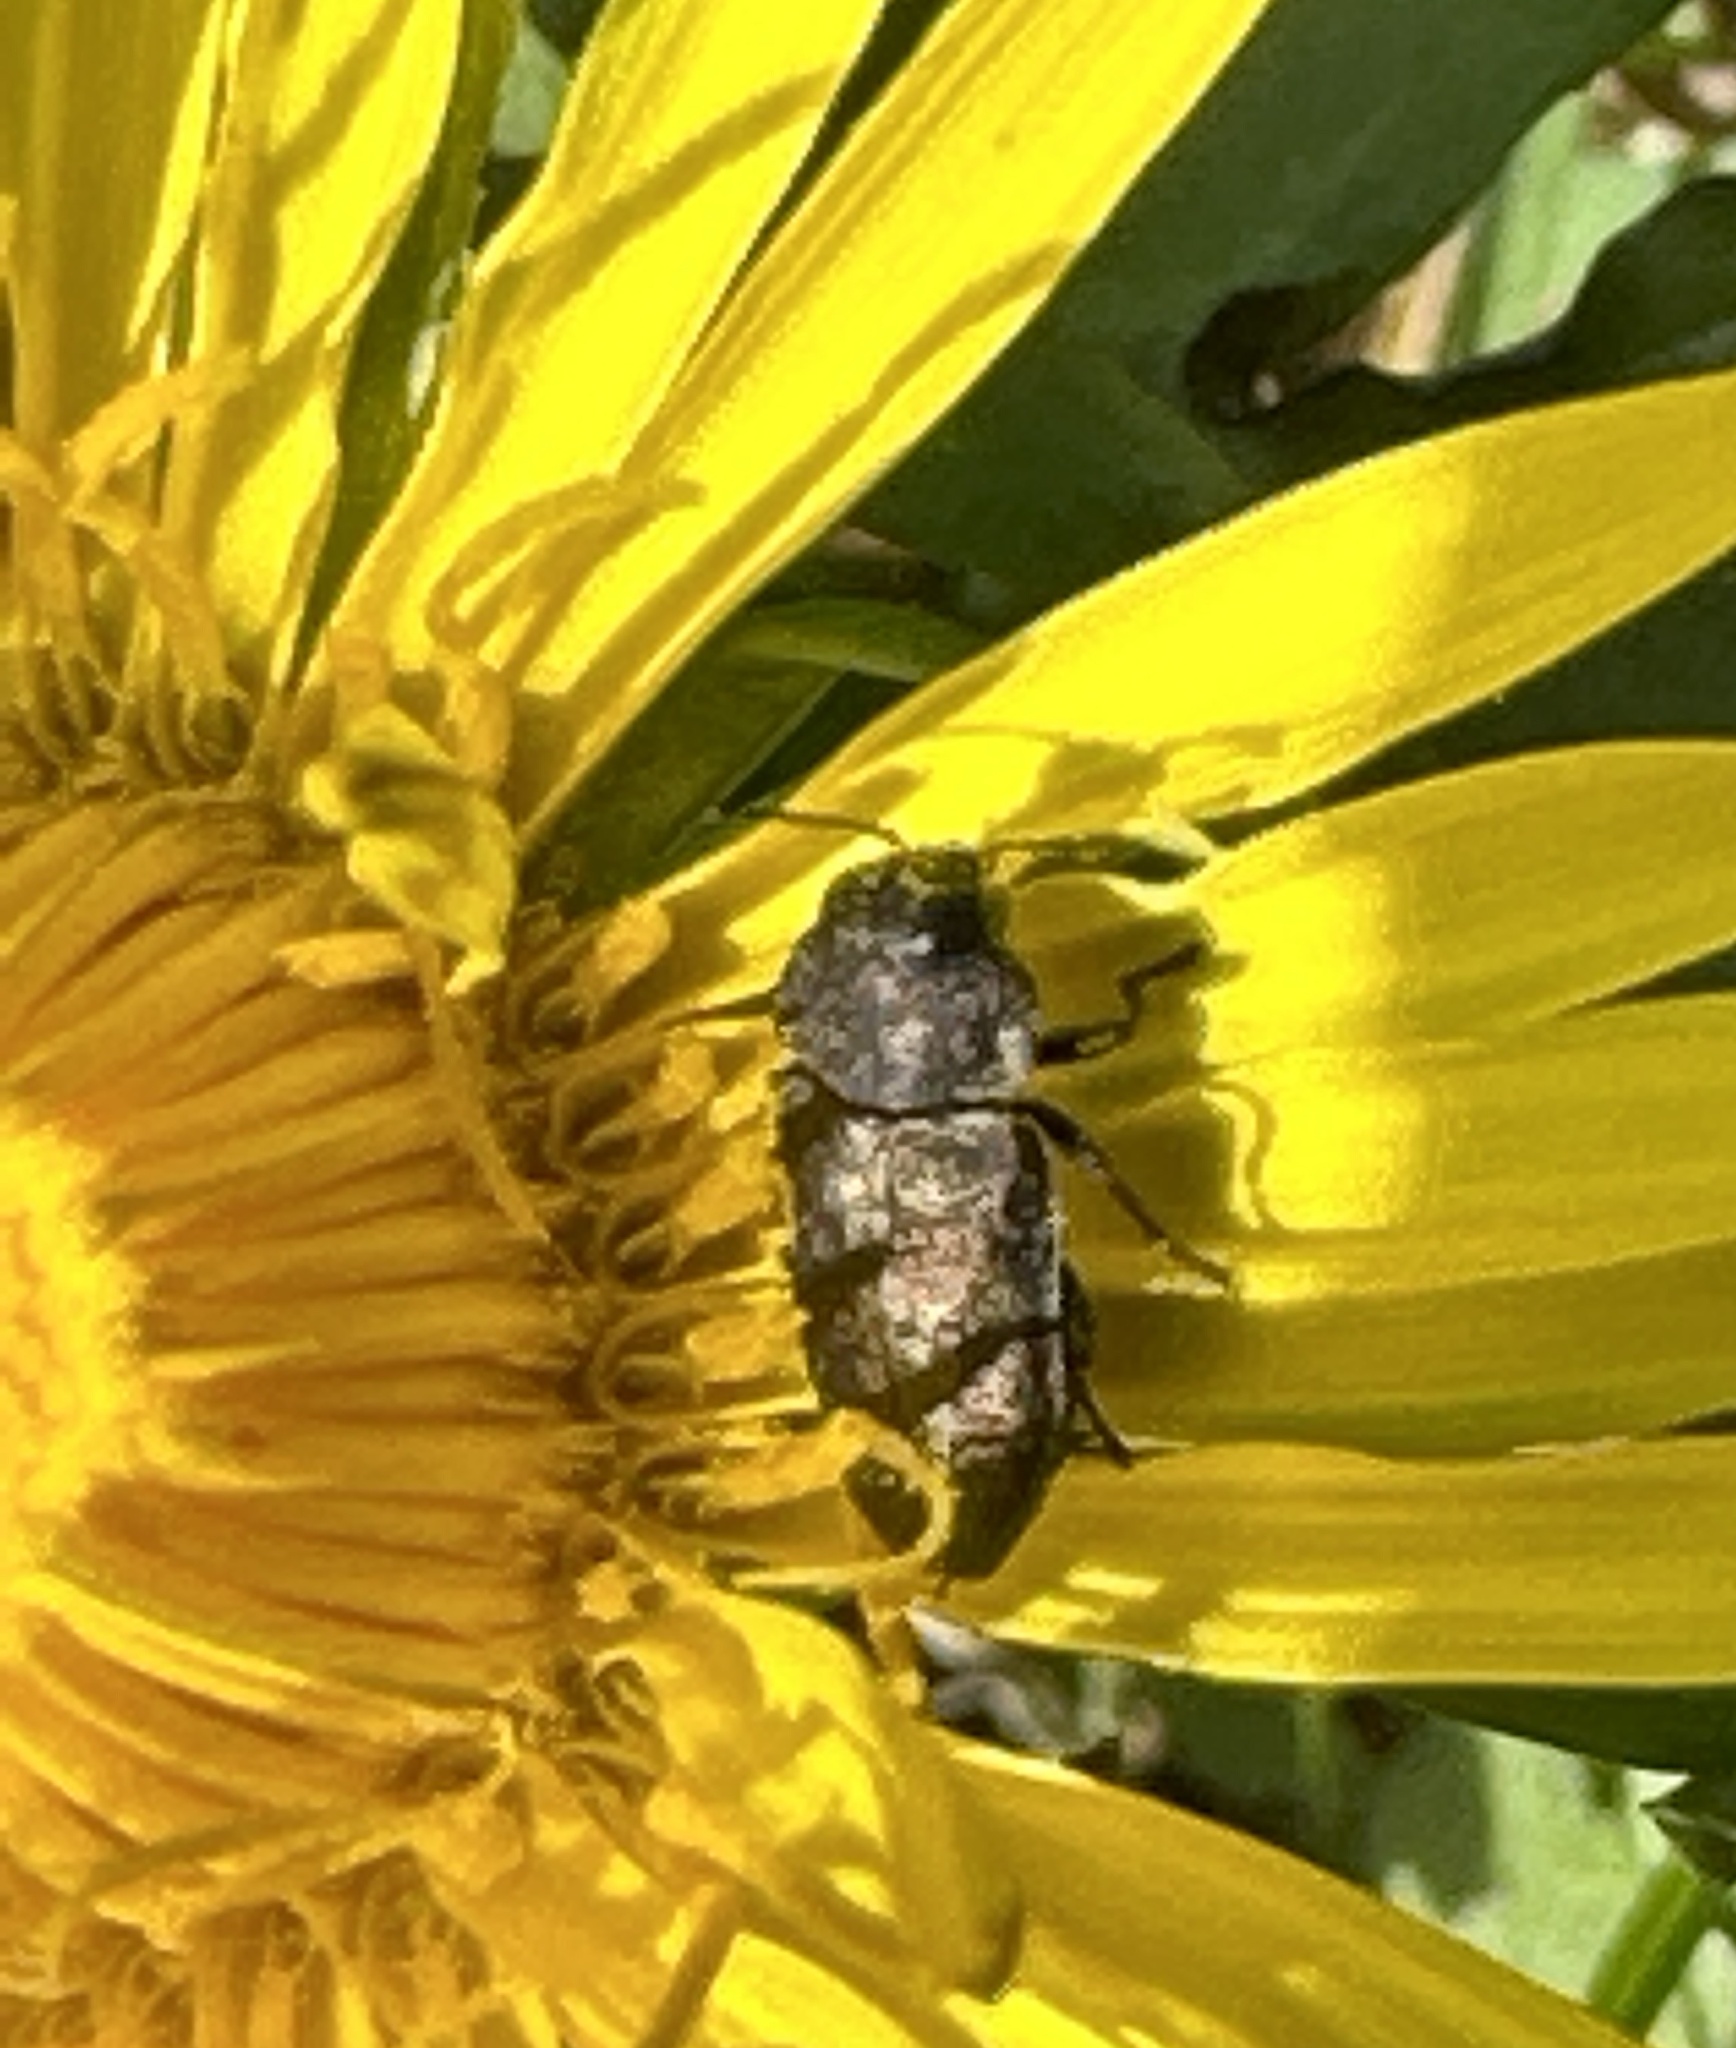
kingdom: Animalia
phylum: Arthropoda
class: Insecta
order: Coleoptera
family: Buprestidae
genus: Anthaxia
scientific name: Anthaxia helvetica
